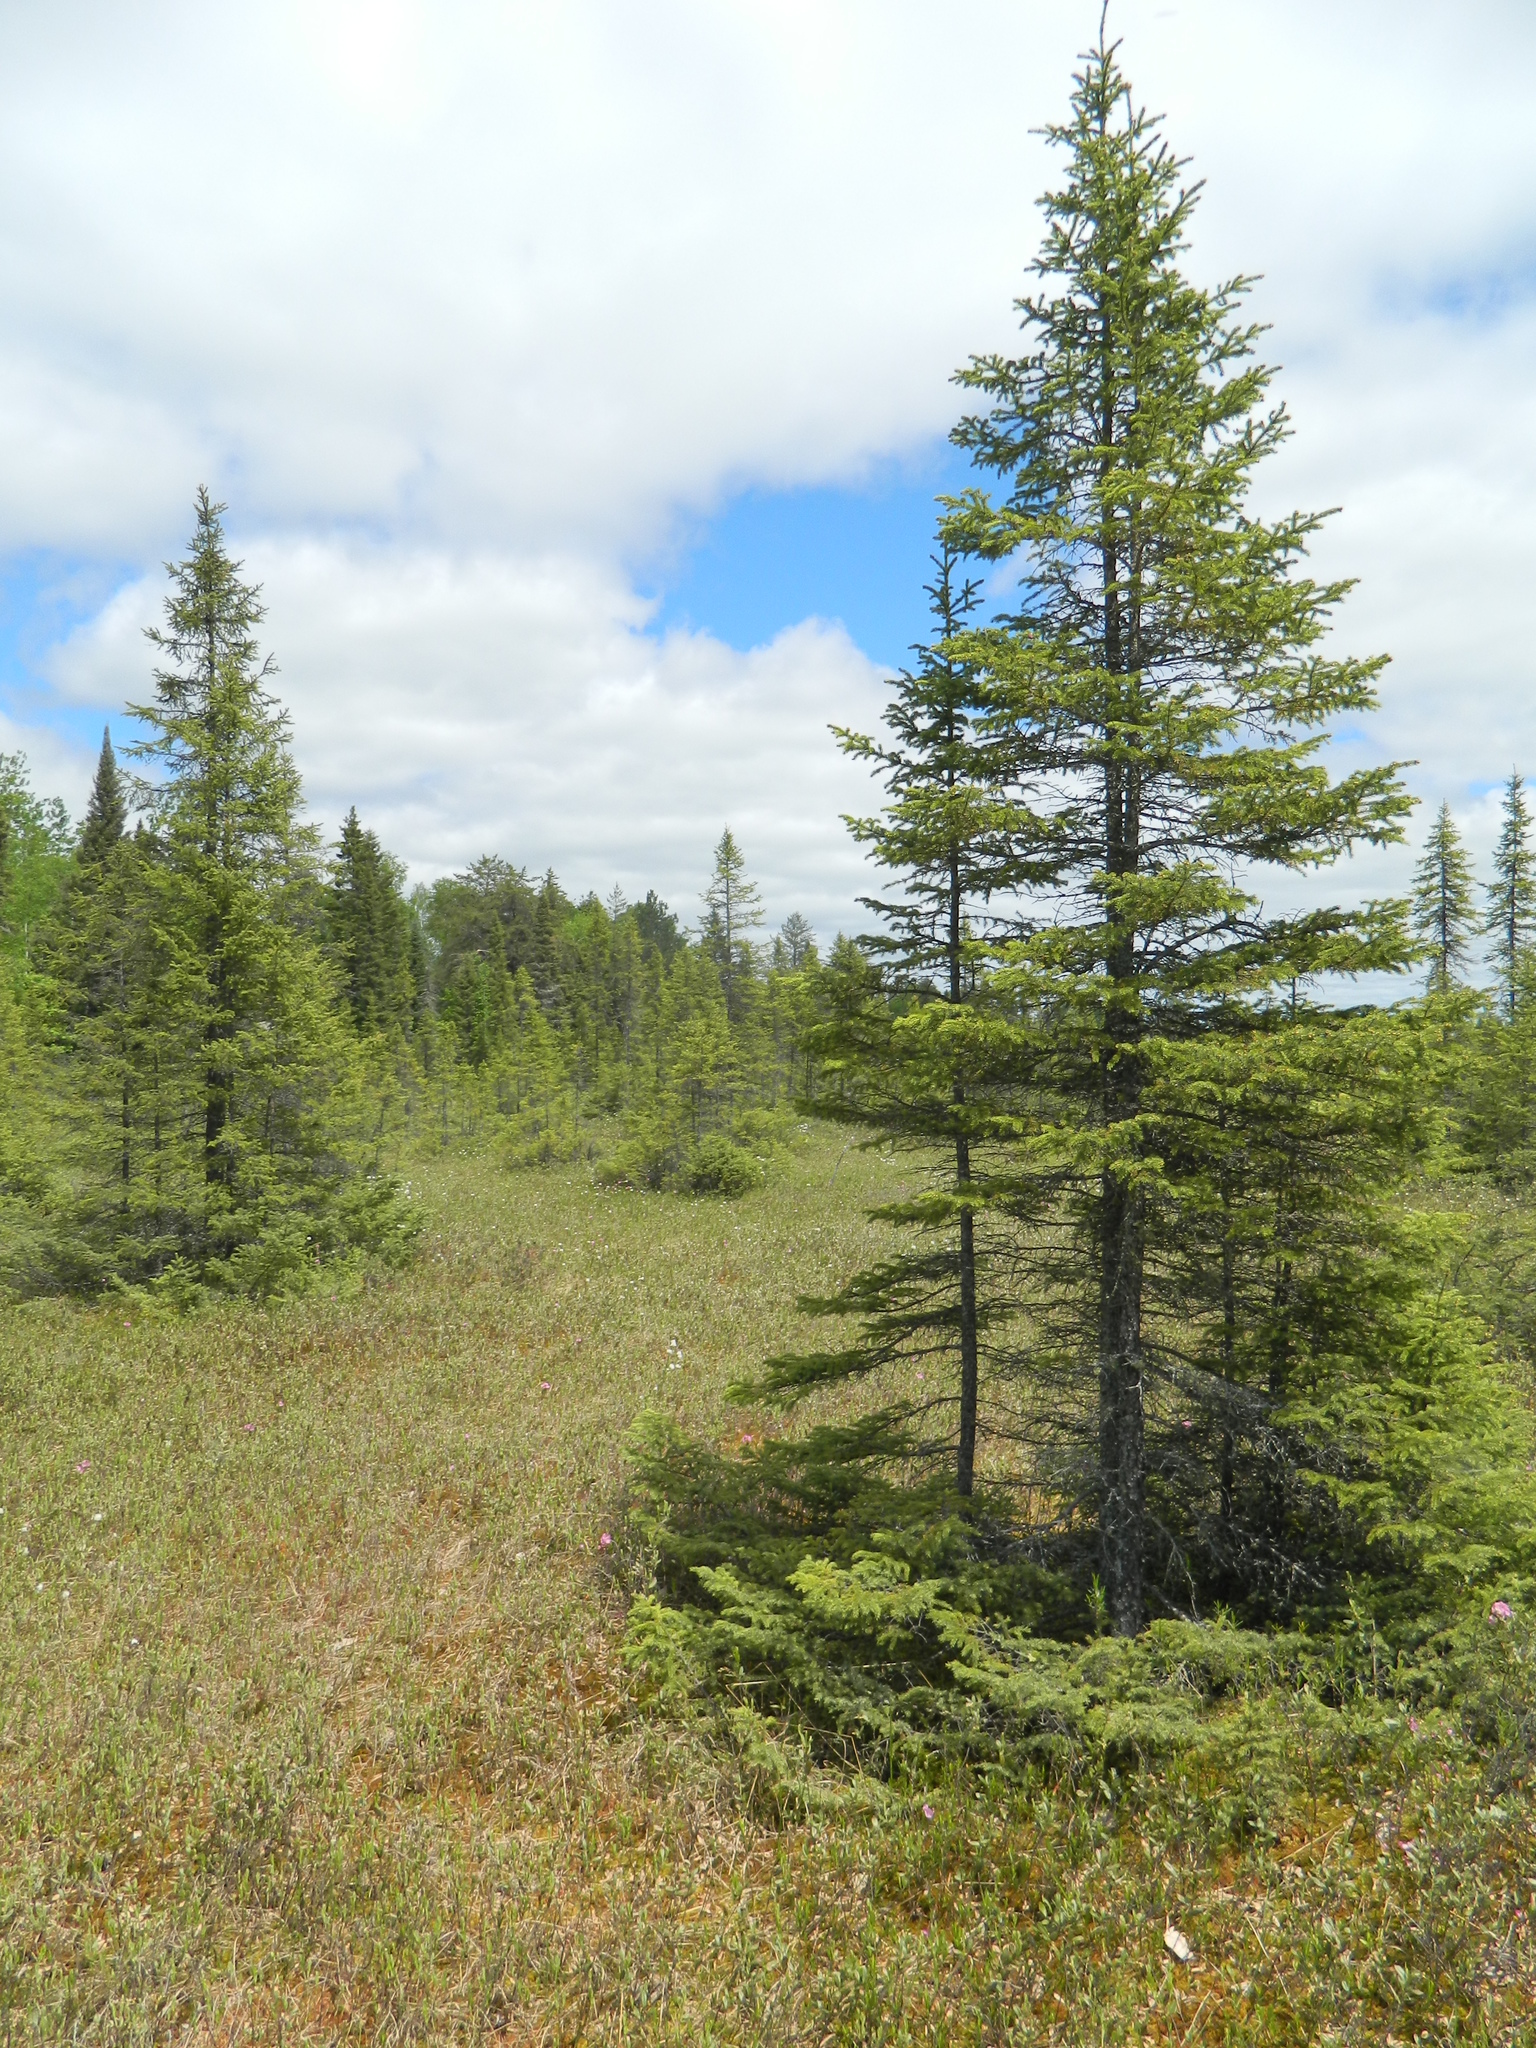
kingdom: Plantae
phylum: Tracheophyta
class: Pinopsida
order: Pinales
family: Pinaceae
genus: Picea
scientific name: Picea mariana
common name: Black spruce
